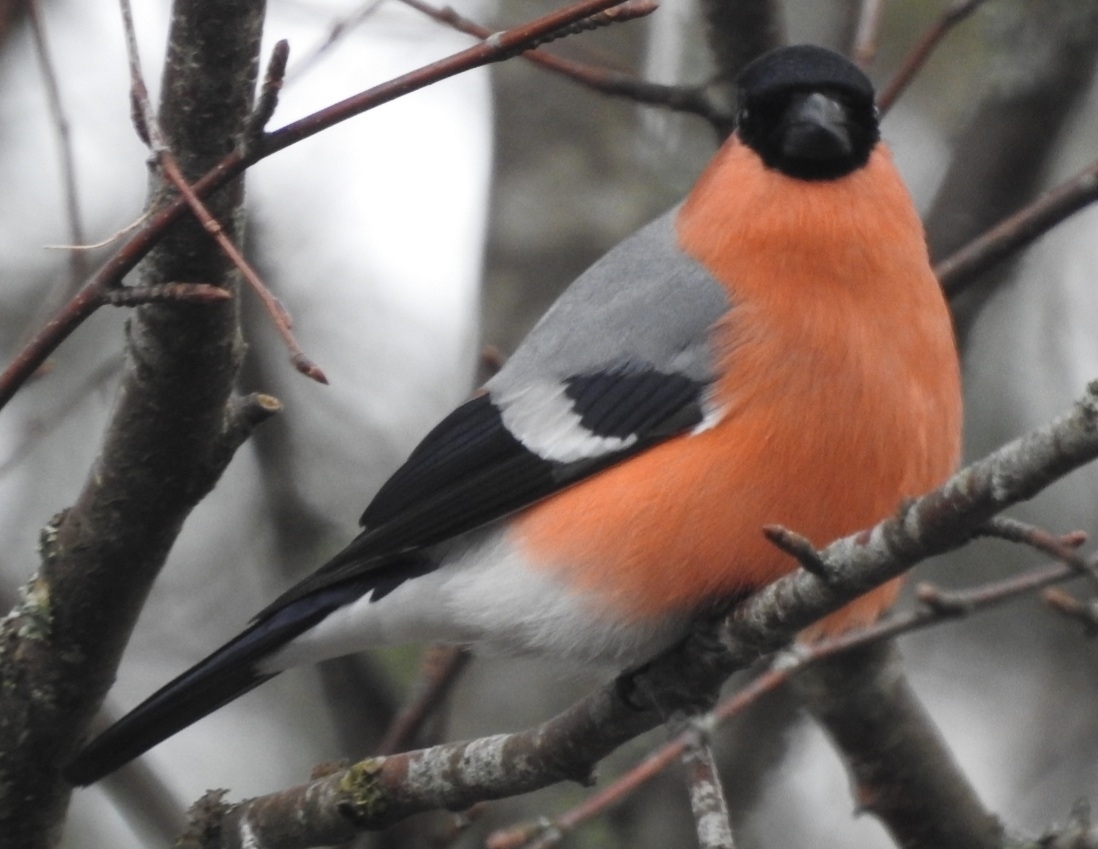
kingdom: Animalia
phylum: Chordata
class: Aves
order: Passeriformes
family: Fringillidae
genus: Pyrrhula
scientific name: Pyrrhula pyrrhula
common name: Eurasian bullfinch
